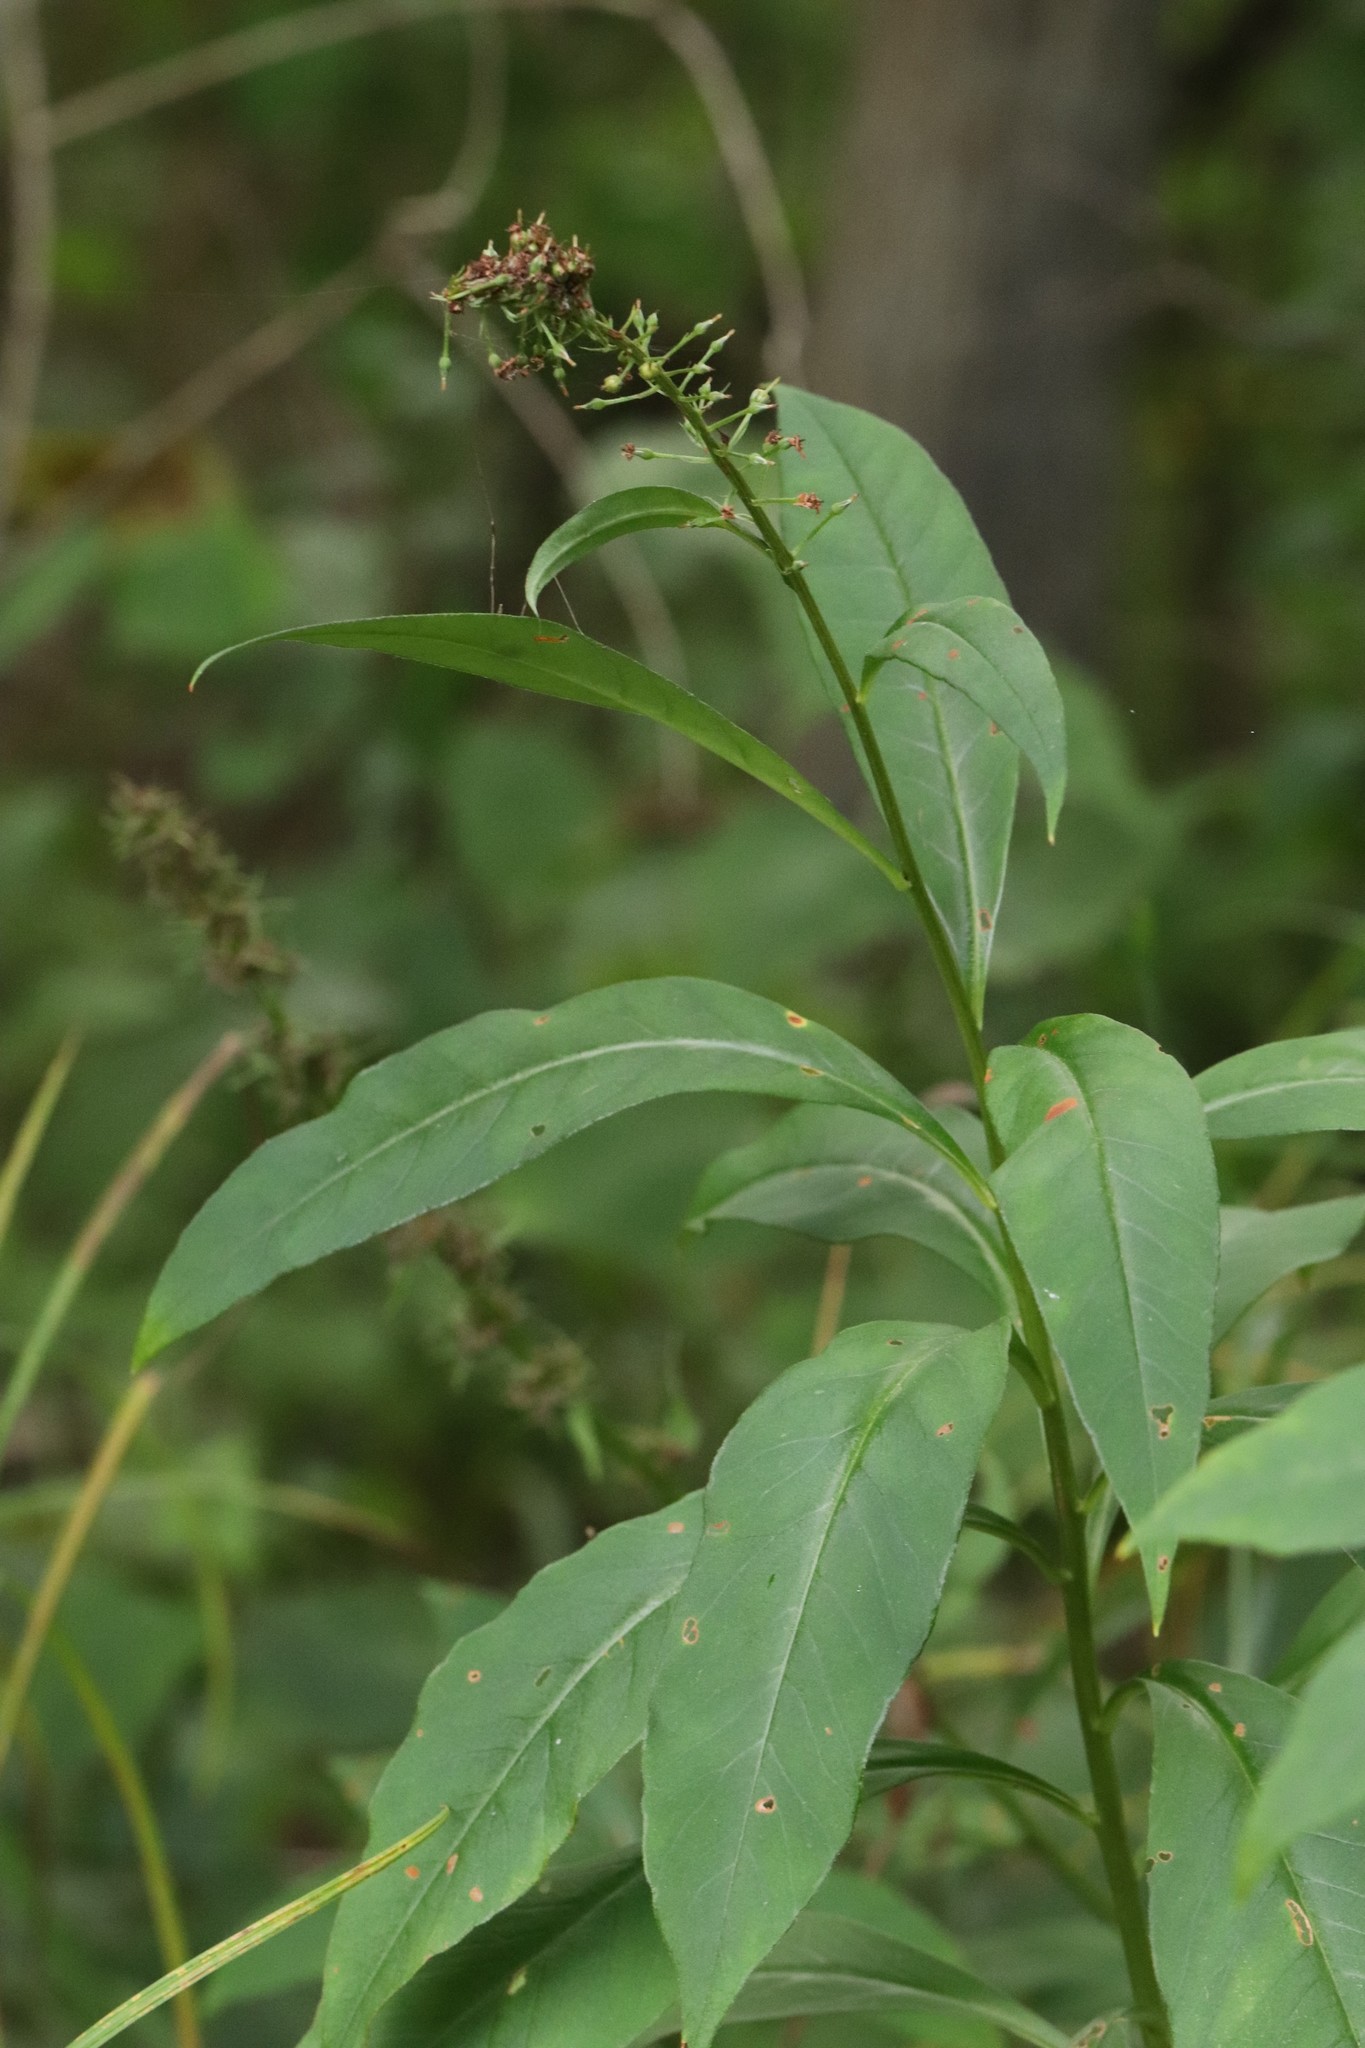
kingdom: Plantae
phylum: Tracheophyta
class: Magnoliopsida
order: Ericales
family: Primulaceae
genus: Lysimachia
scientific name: Lysimachia clethroides
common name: Gooseneck loosestrife
